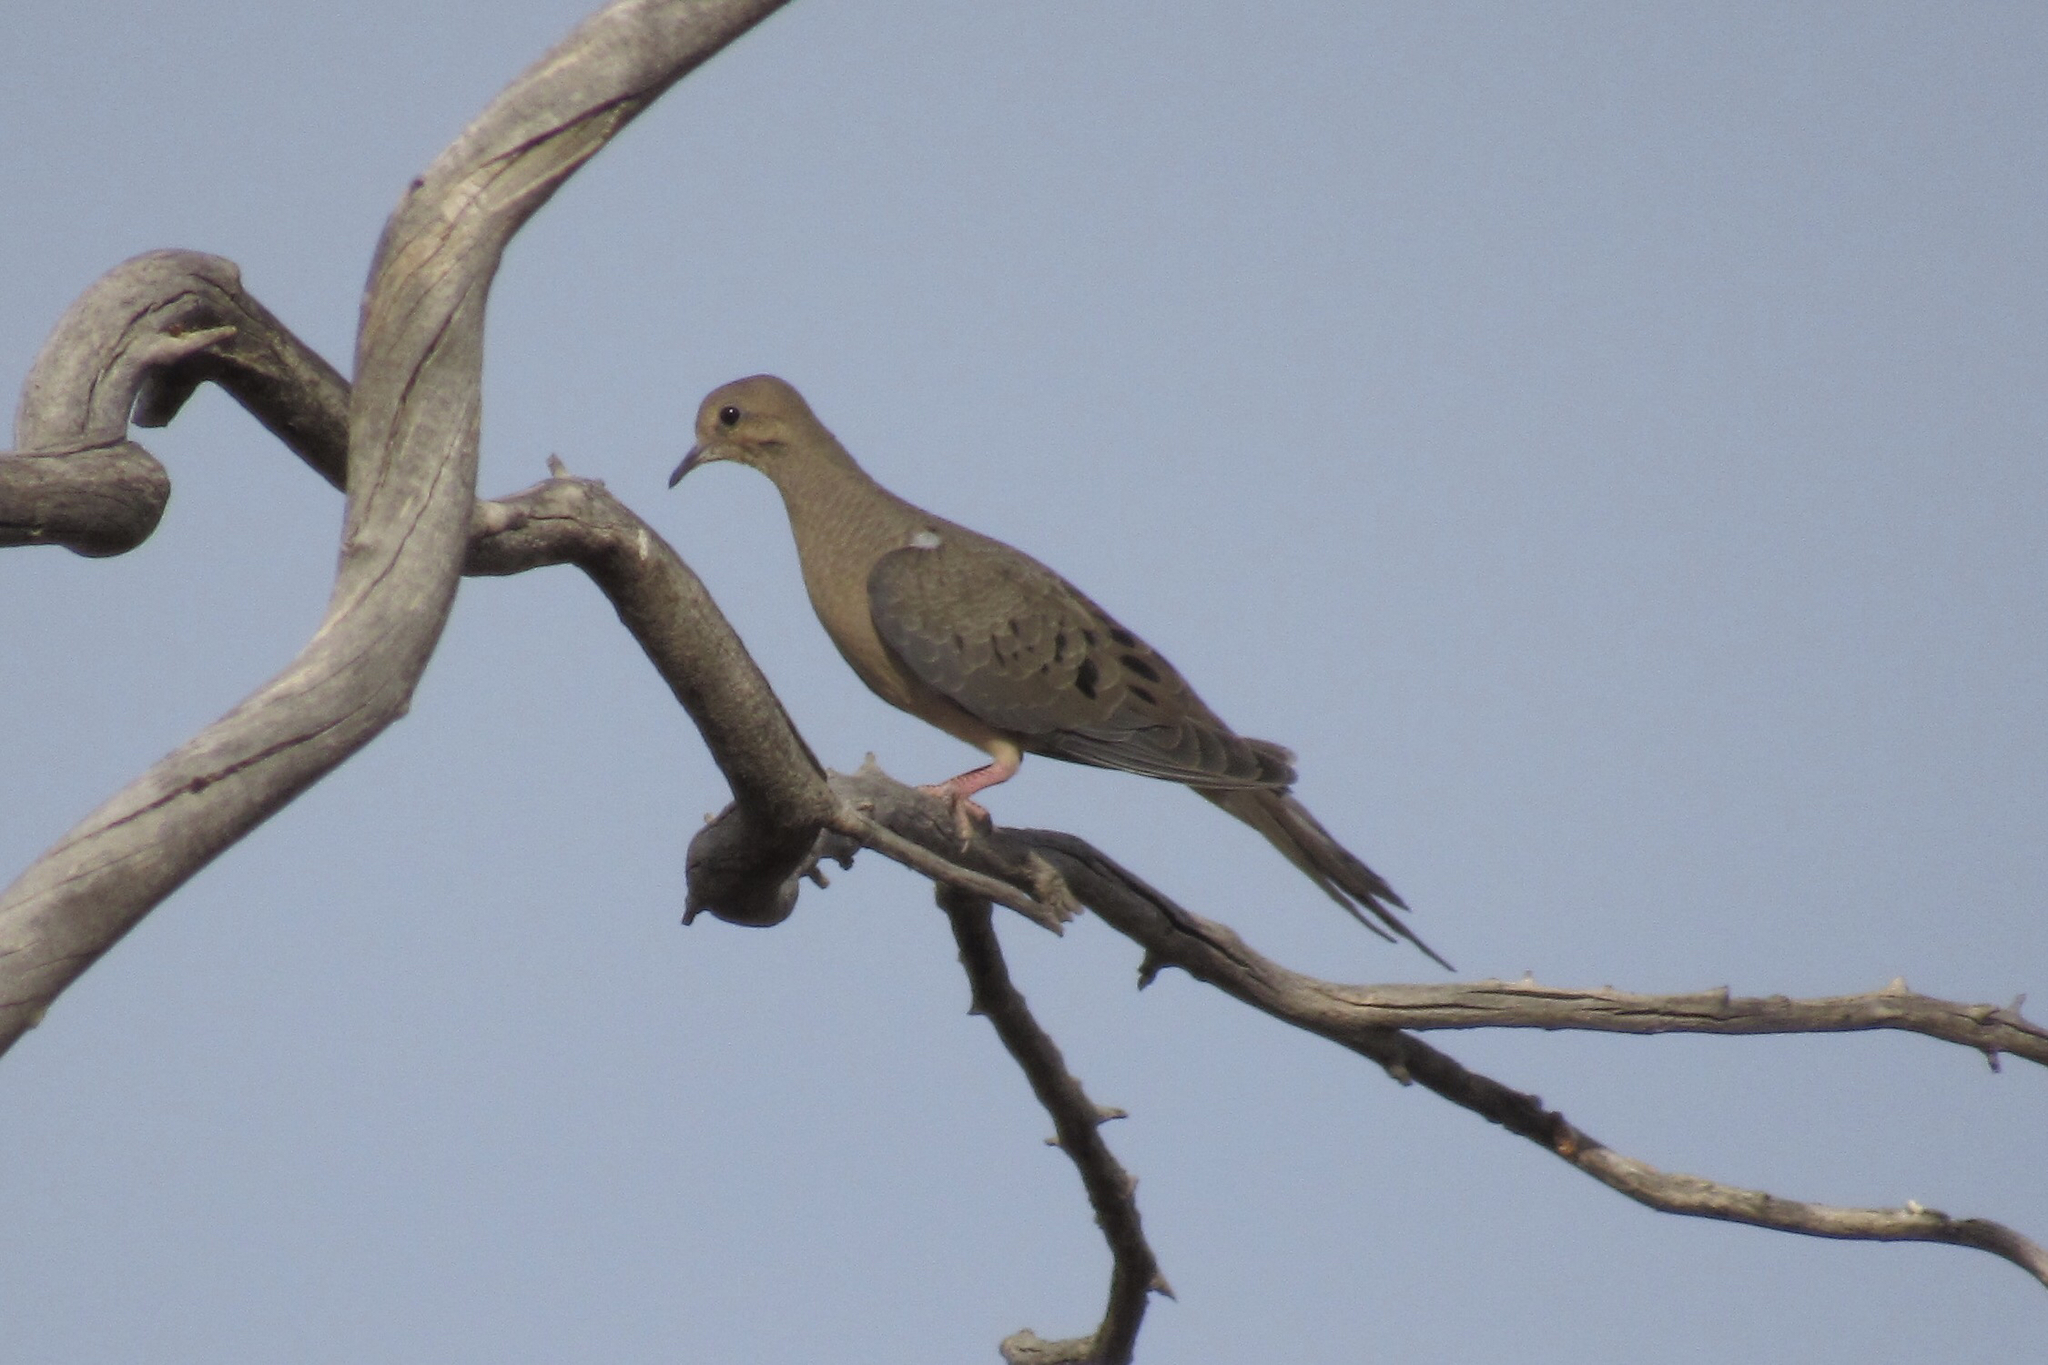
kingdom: Animalia
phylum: Chordata
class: Aves
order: Columbiformes
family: Columbidae
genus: Zenaida
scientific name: Zenaida macroura
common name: Mourning dove
